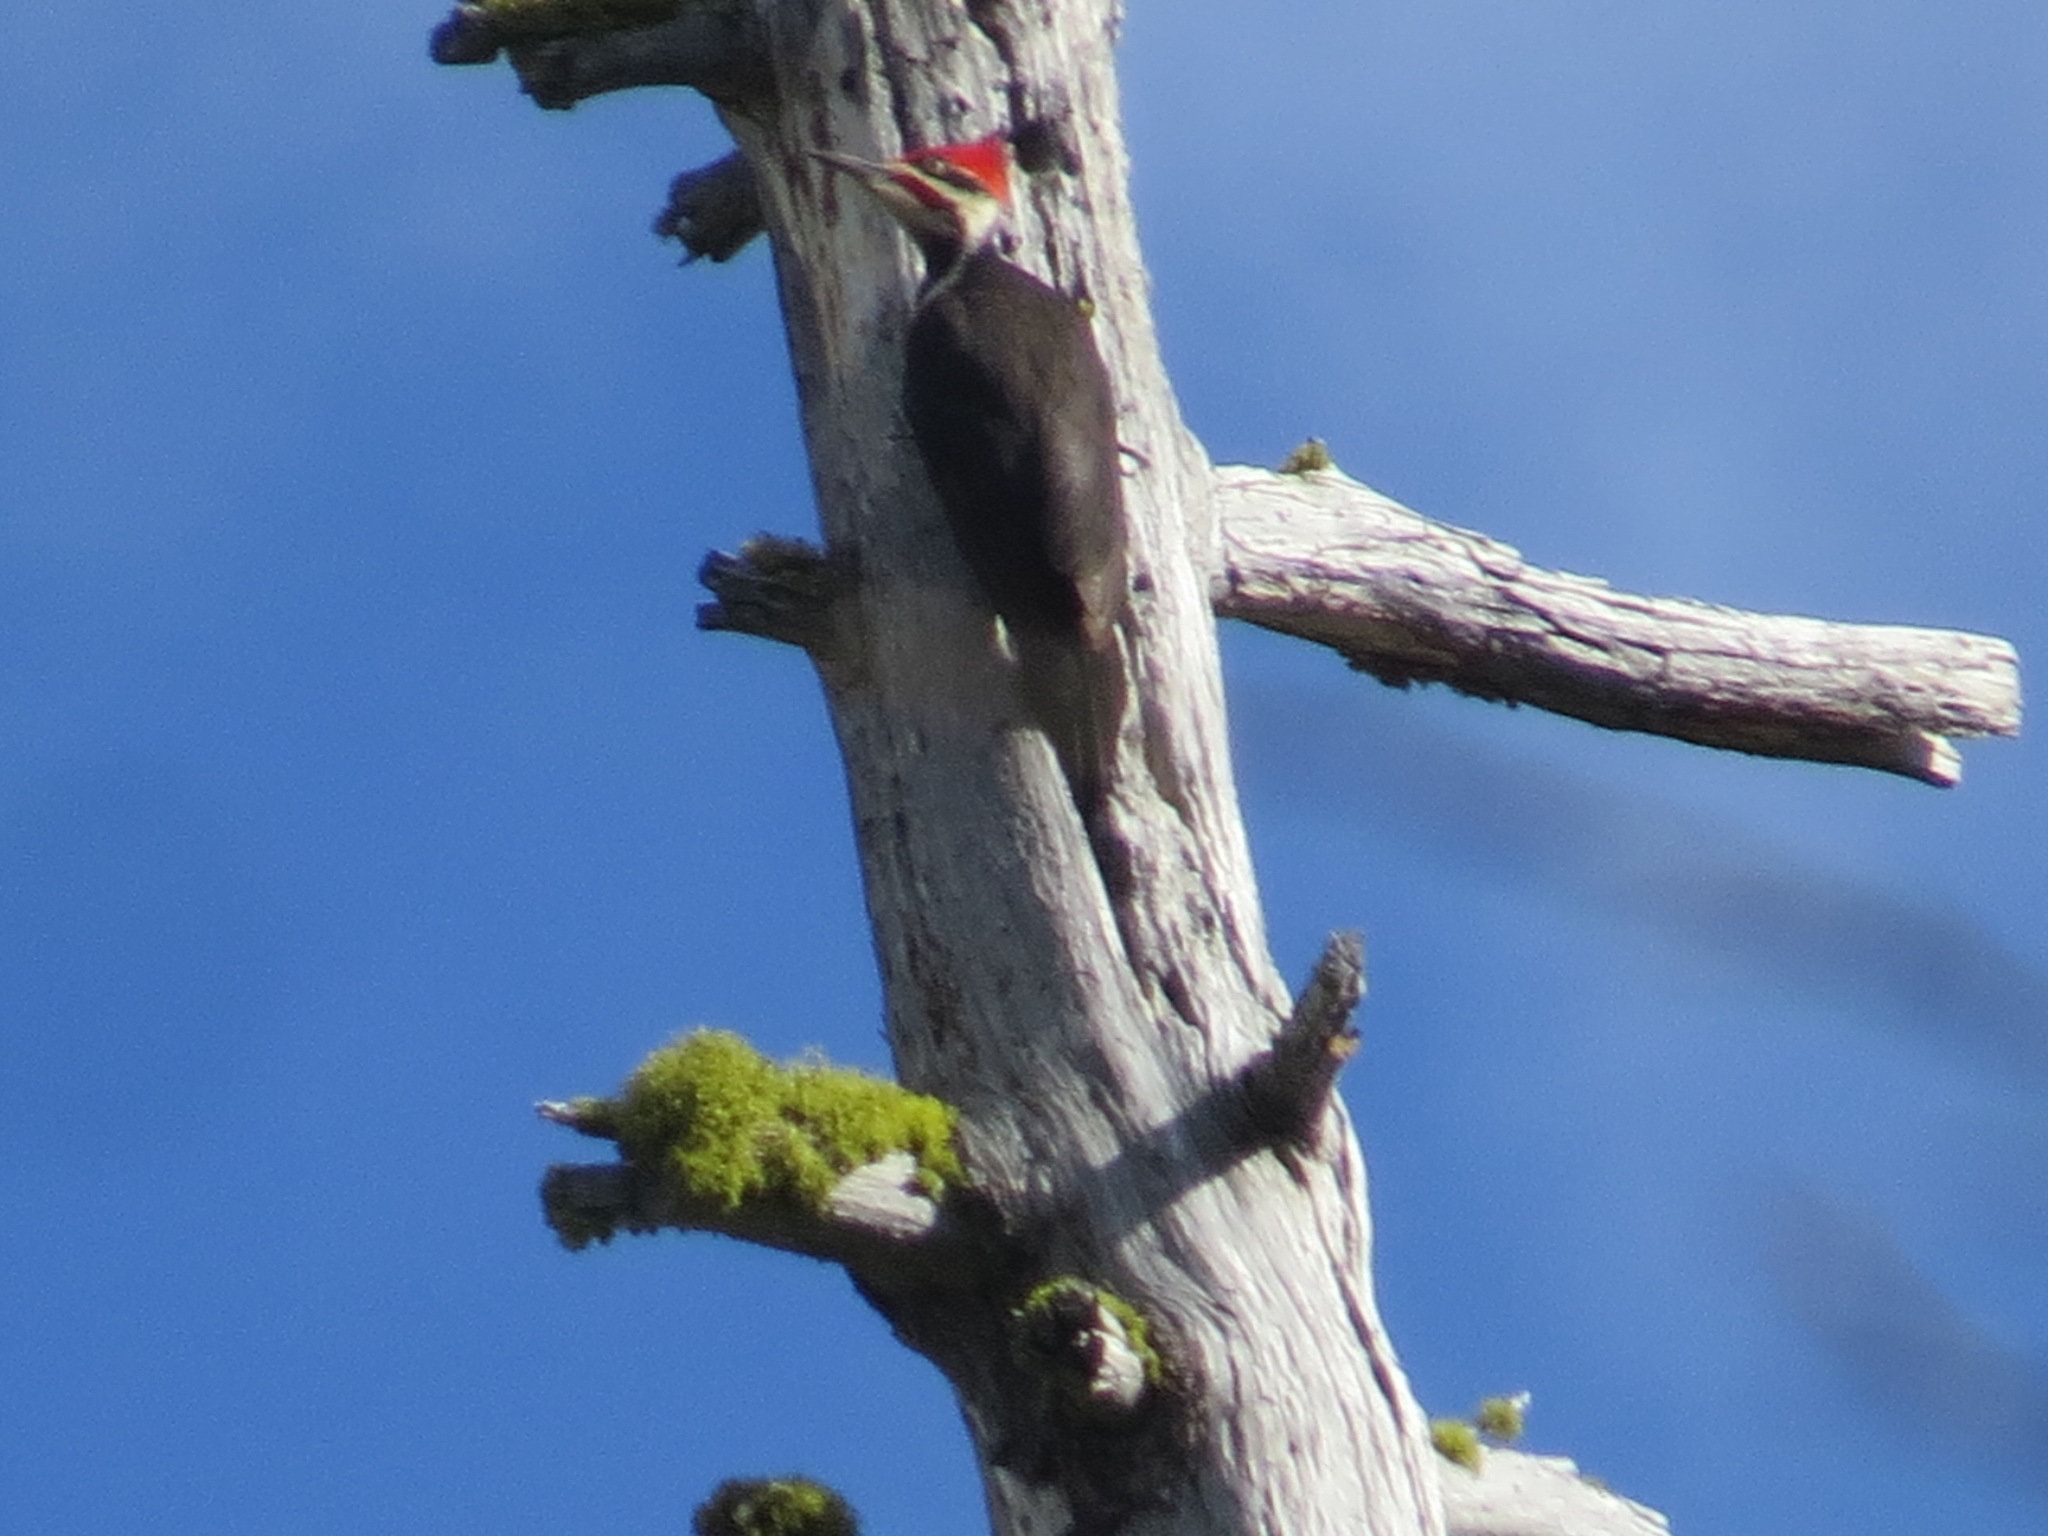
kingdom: Animalia
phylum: Chordata
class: Aves
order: Piciformes
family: Picidae
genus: Dryocopus
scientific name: Dryocopus pileatus
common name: Pileated woodpecker
